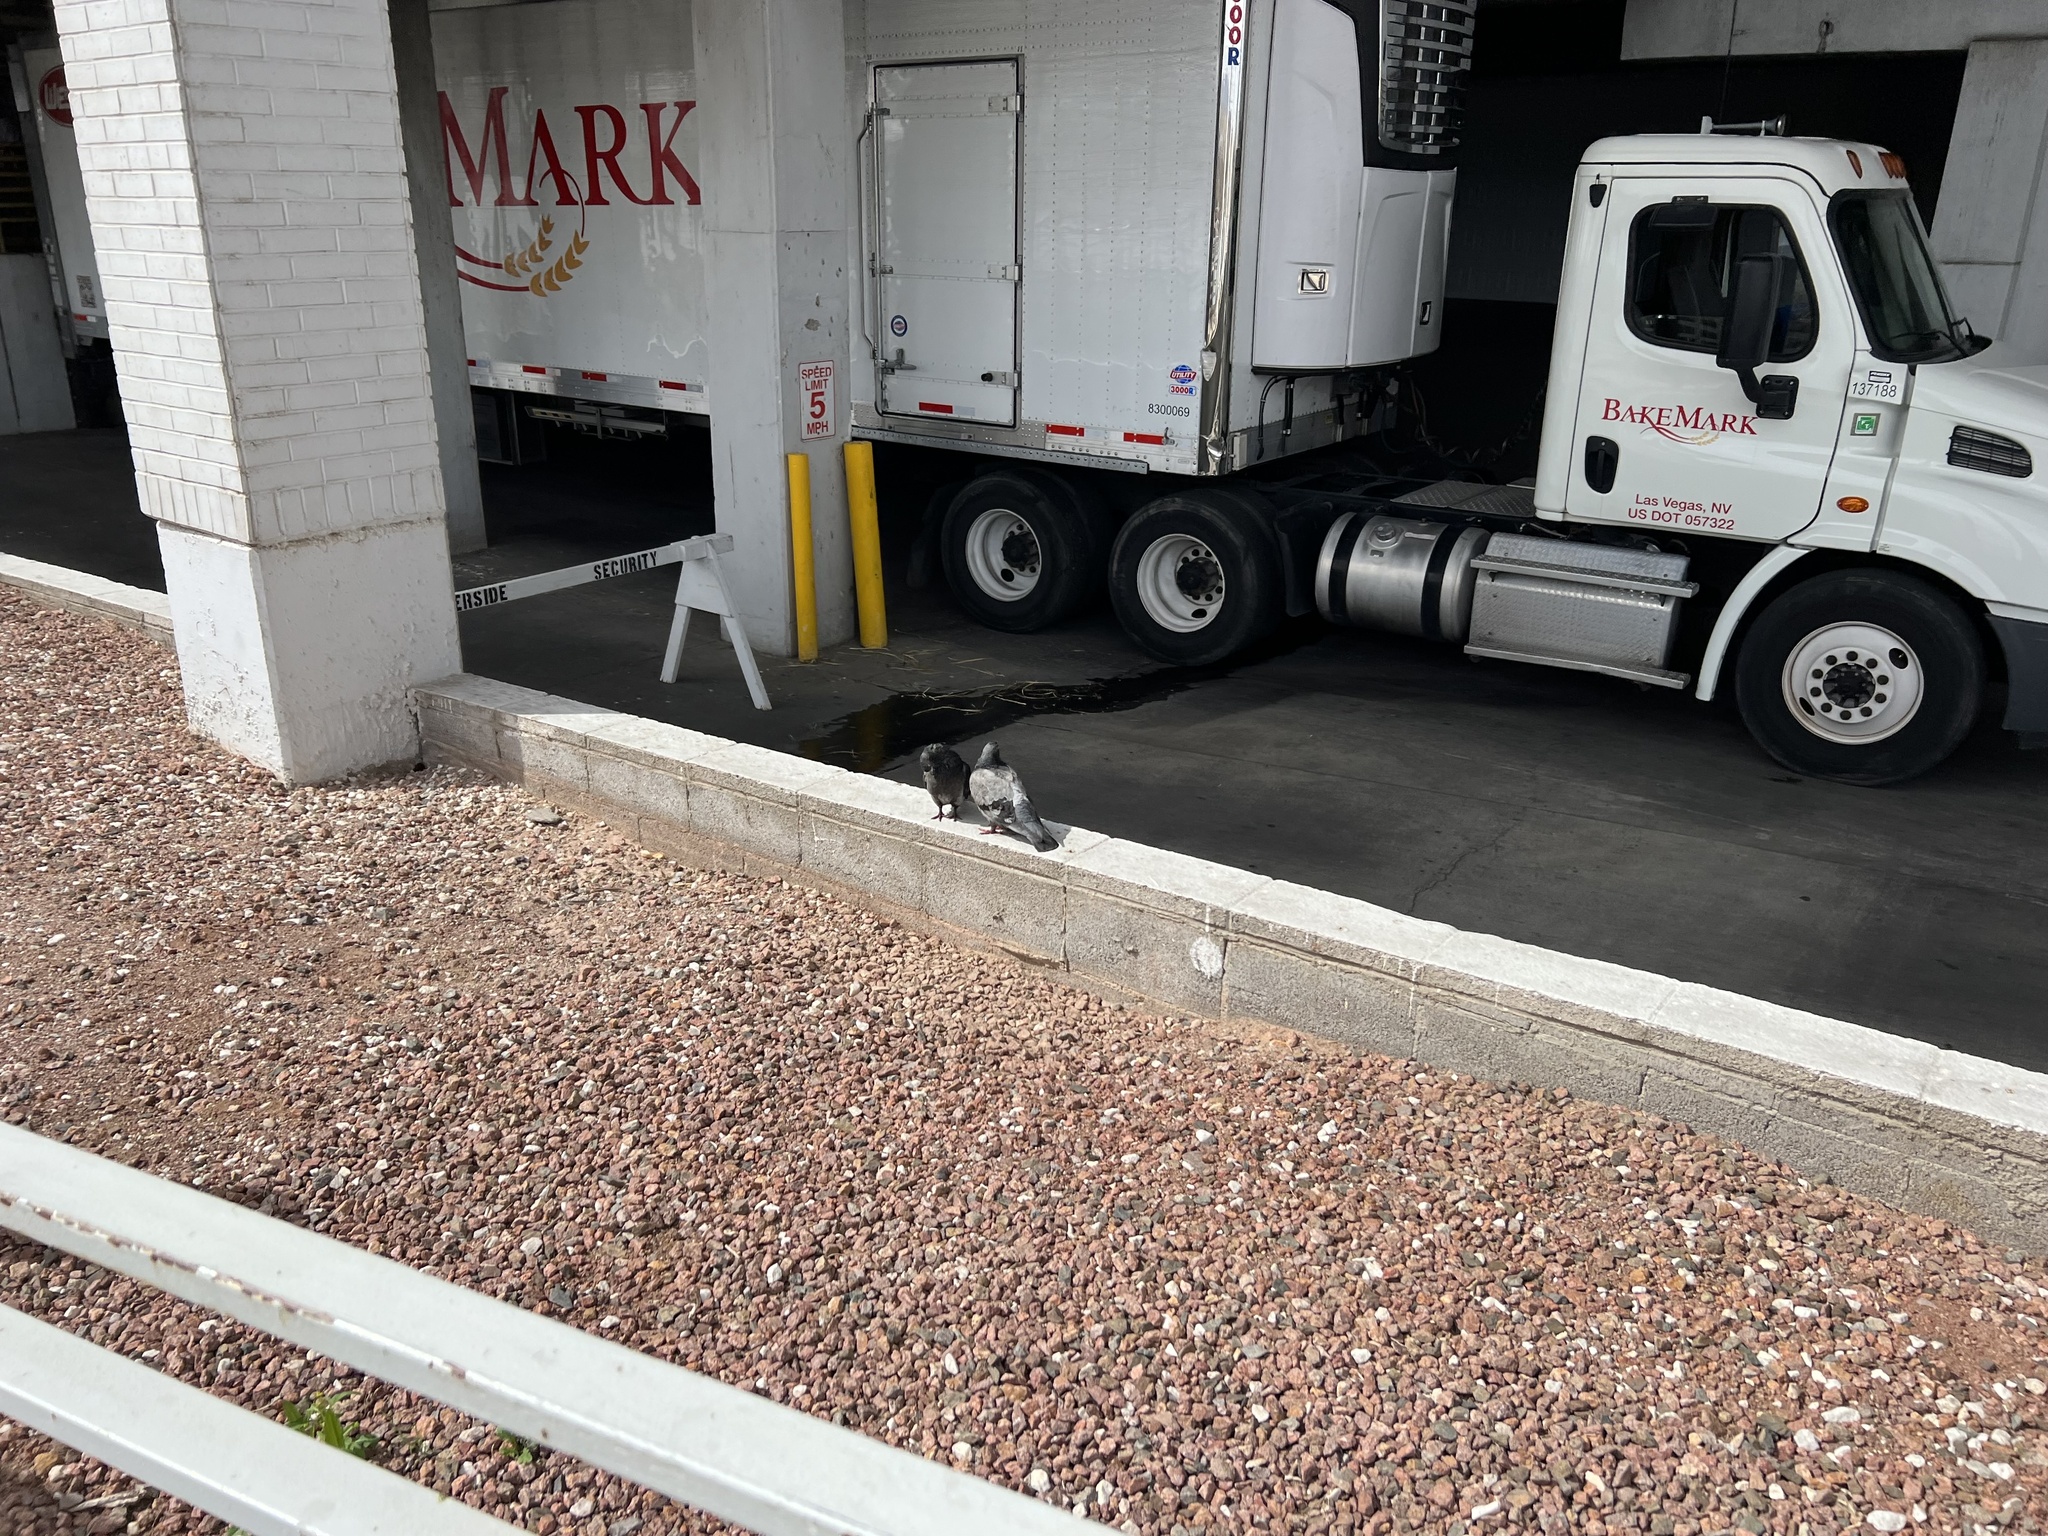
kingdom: Animalia
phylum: Chordata
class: Aves
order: Columbiformes
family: Columbidae
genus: Columba
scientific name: Columba livia
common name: Rock pigeon
